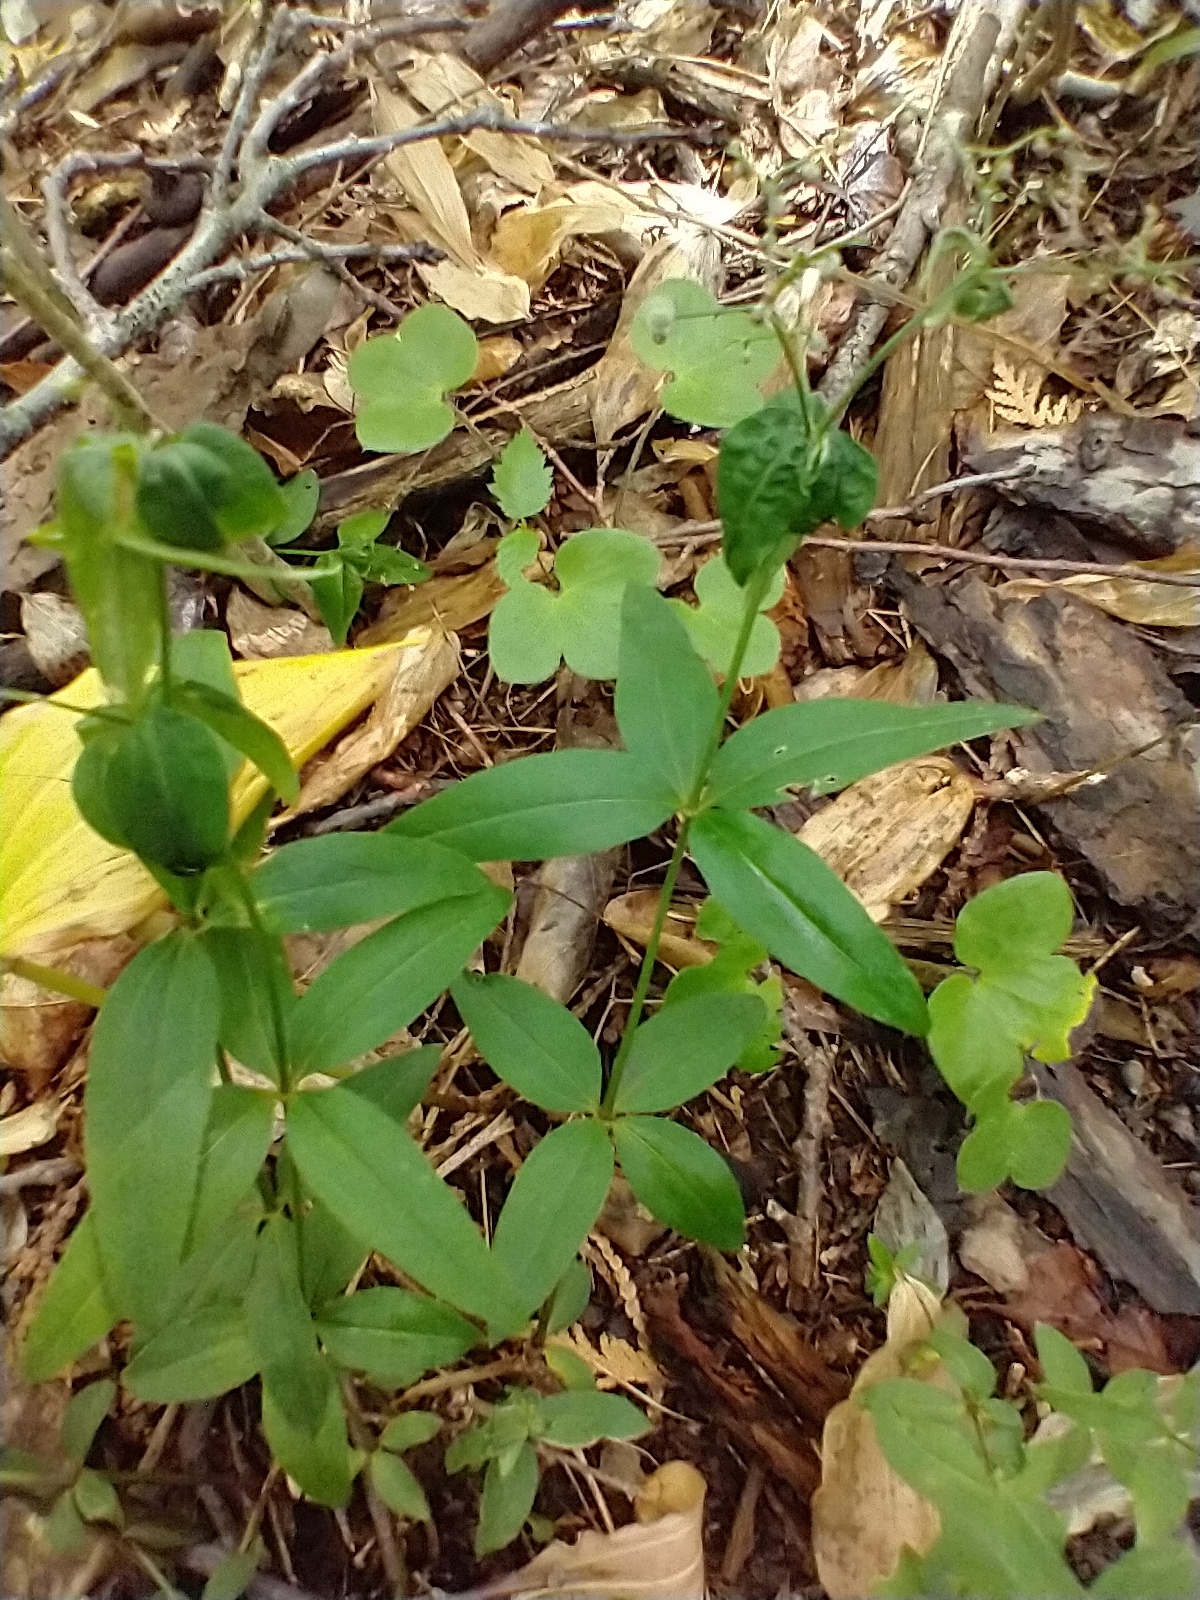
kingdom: Plantae
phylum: Tracheophyta
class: Magnoliopsida
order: Gentianales
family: Rubiaceae
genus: Galium
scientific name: Galium lanceolatum
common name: Lance-leaved wild licorice
